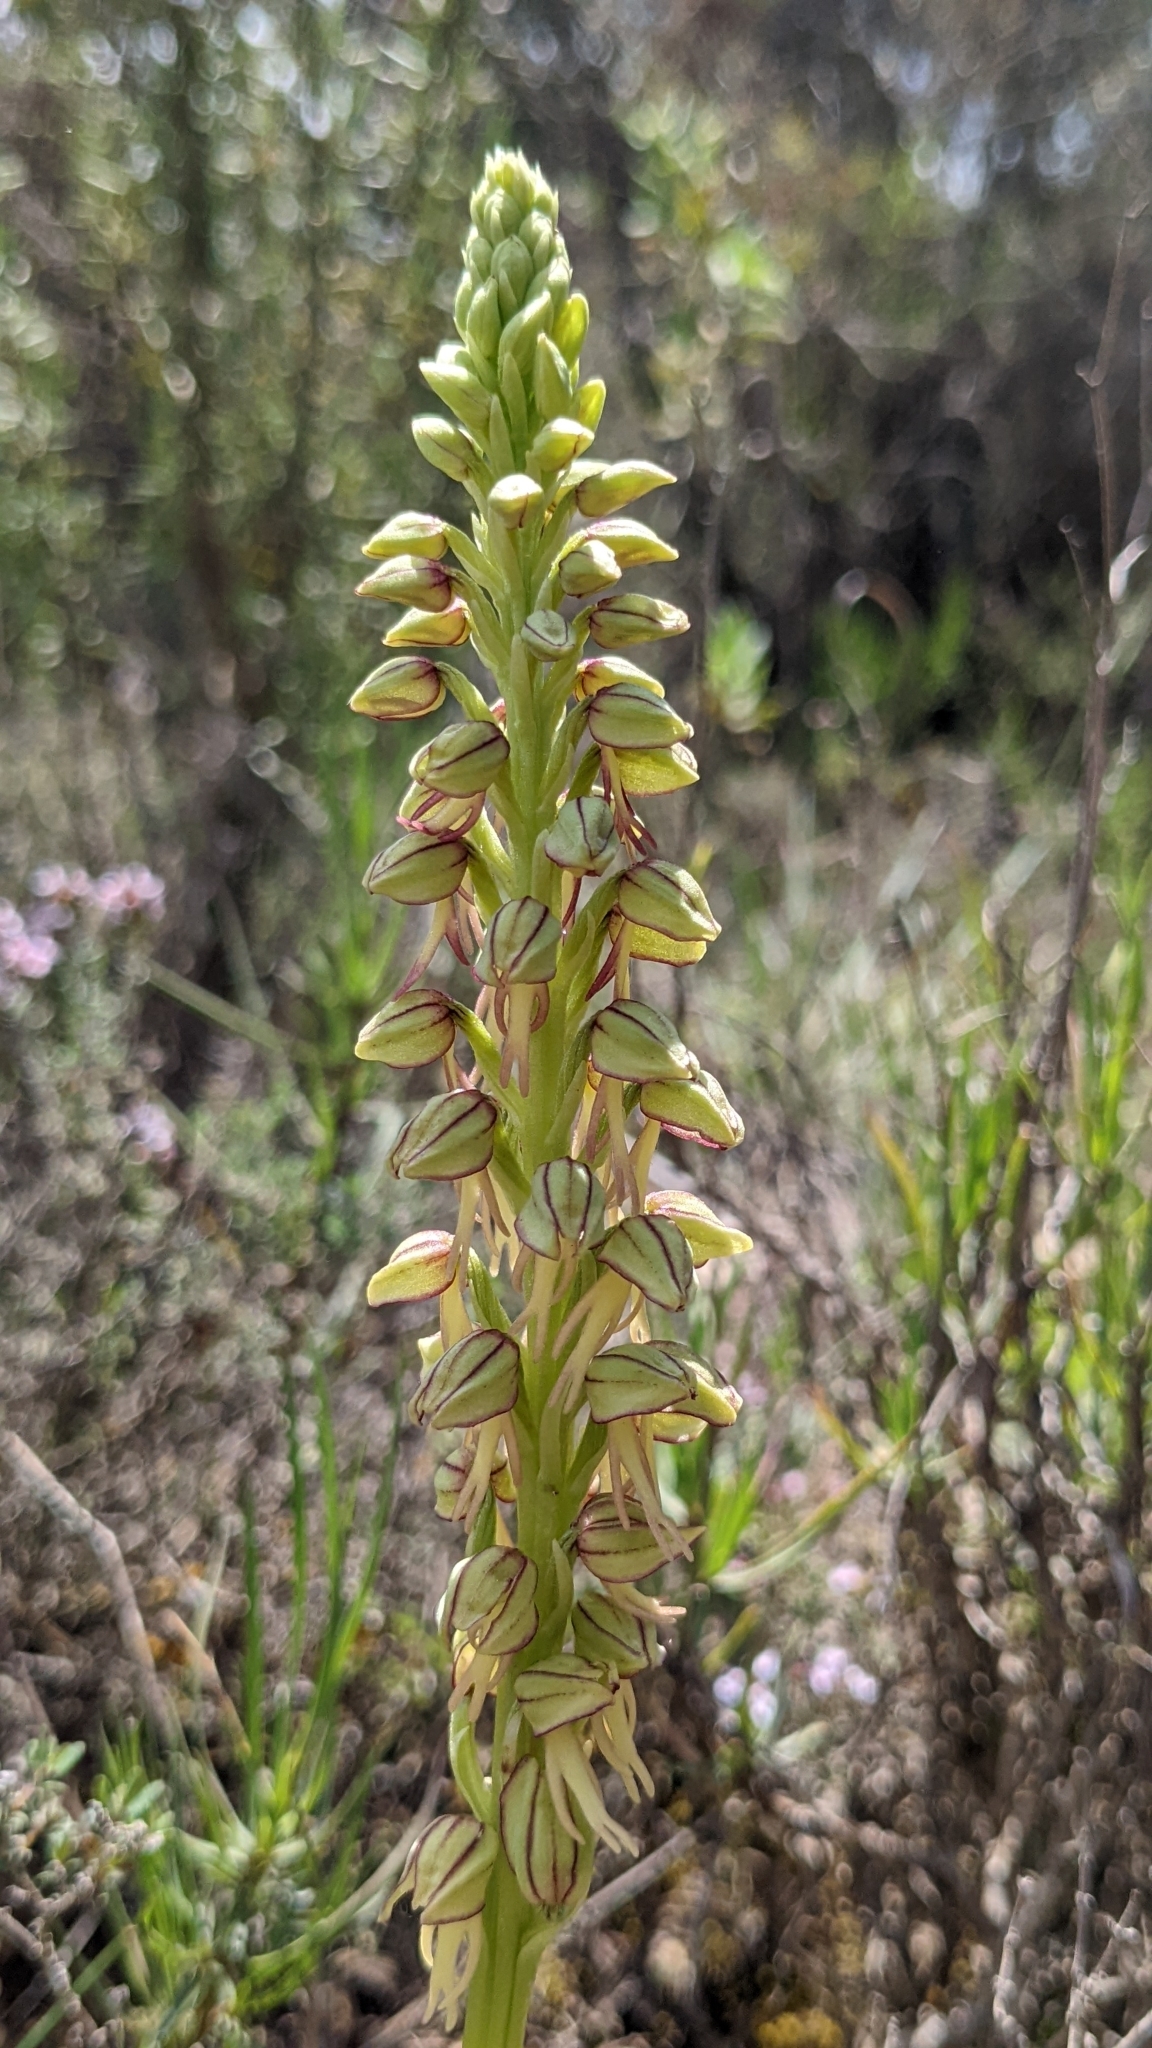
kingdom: Plantae
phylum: Tracheophyta
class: Liliopsida
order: Asparagales
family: Orchidaceae
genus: Orchis
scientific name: Orchis anthropophora
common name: Man orchid
